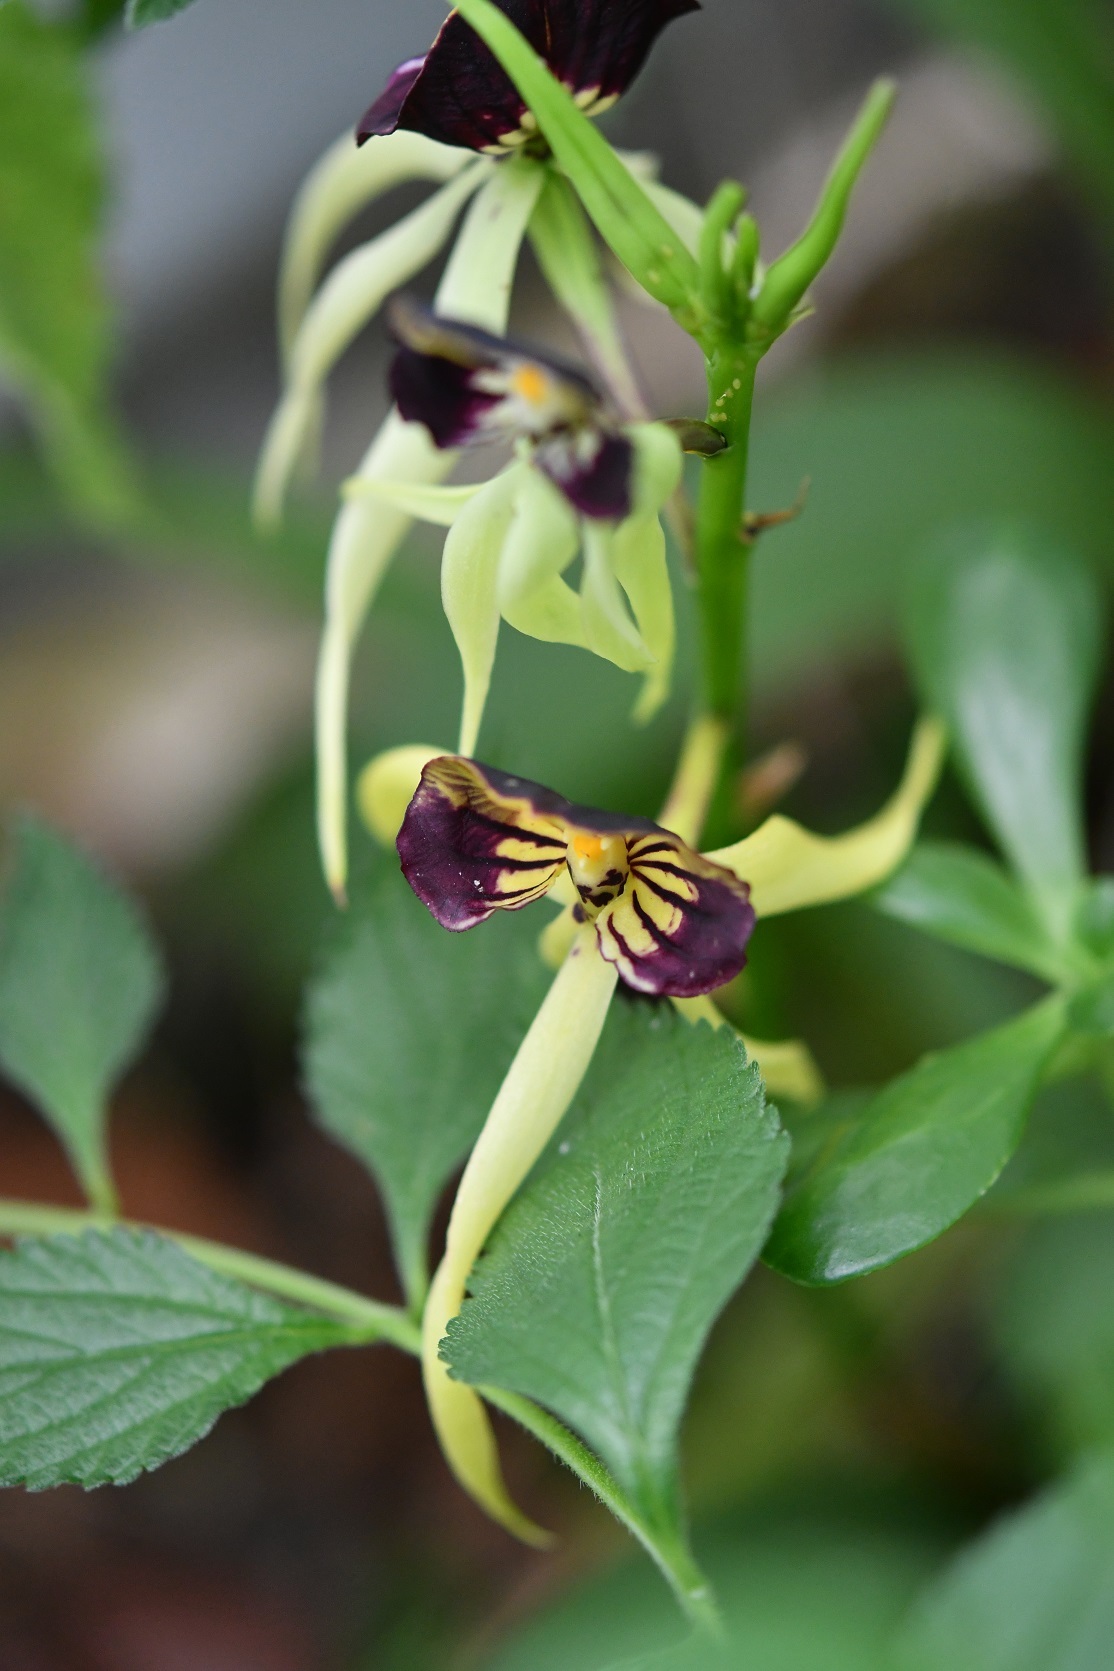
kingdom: Plantae
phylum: Tracheophyta
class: Liliopsida
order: Asparagales
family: Orchidaceae
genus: Prosthechea
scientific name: Prosthechea cochleata
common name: Clamshell orchid
